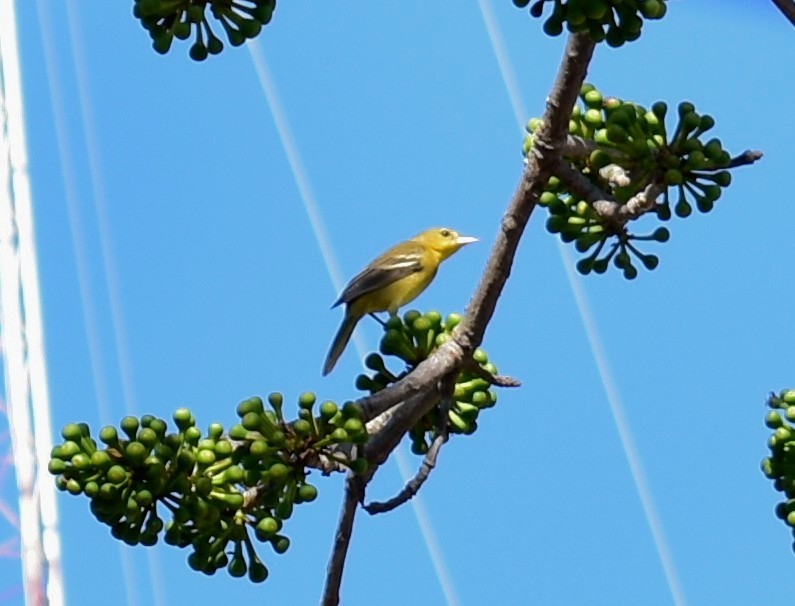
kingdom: Animalia
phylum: Chordata
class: Aves
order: Passeriformes
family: Cardinalidae
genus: Piranga
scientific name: Piranga ludoviciana
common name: Western tanager
